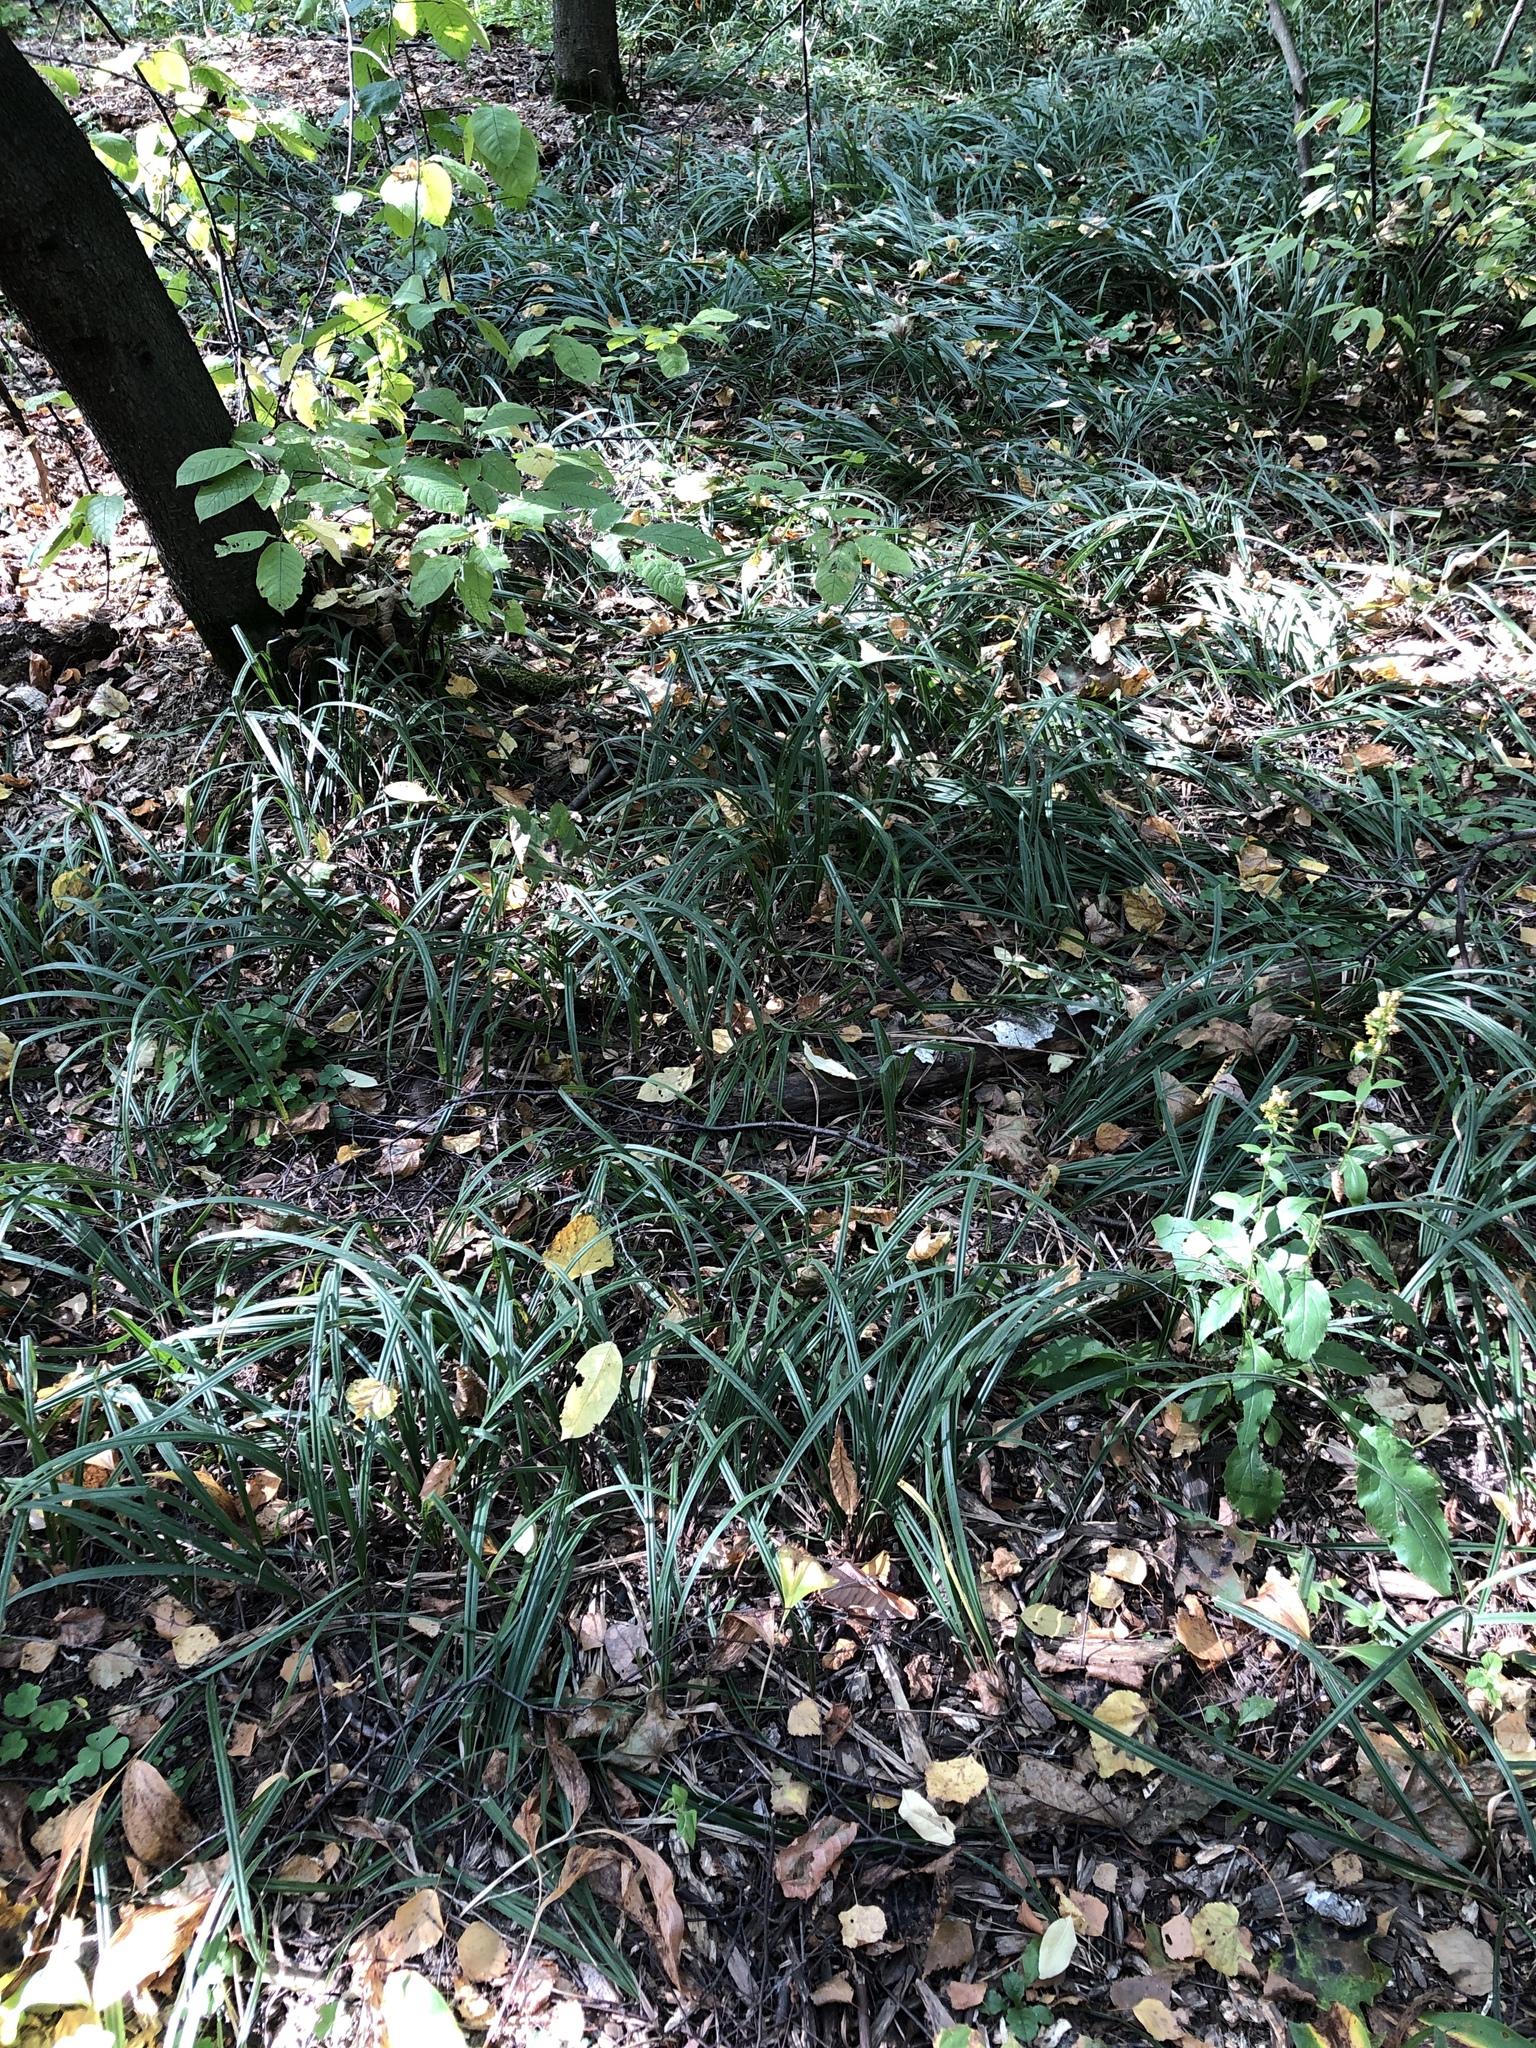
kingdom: Plantae
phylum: Tracheophyta
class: Liliopsida
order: Poales
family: Cyperaceae
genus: Carex
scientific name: Carex pilosa
